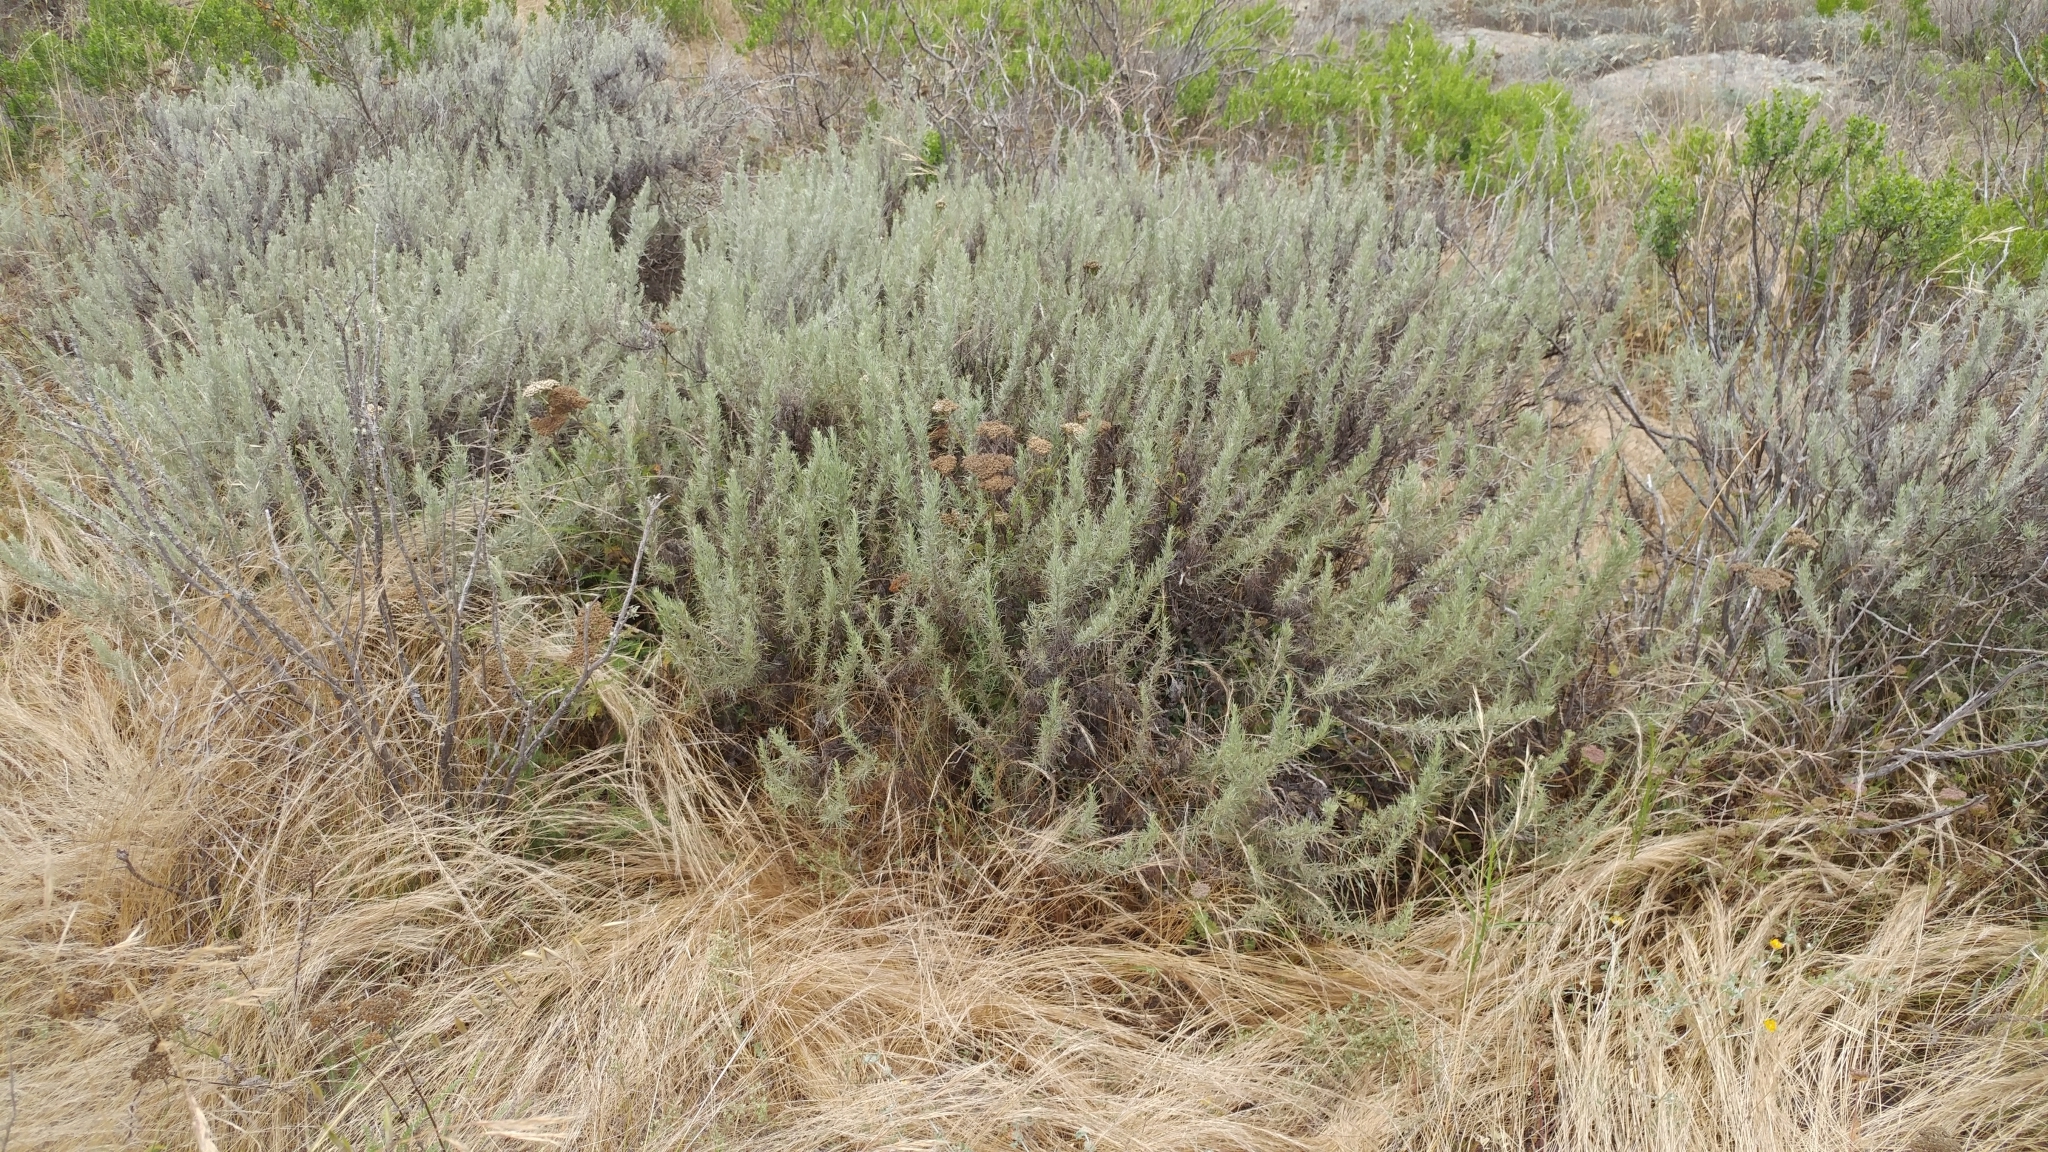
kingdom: Plantae
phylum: Tracheophyta
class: Magnoliopsida
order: Asterales
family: Asteraceae
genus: Artemisia
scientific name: Artemisia californica
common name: California sagebrush
